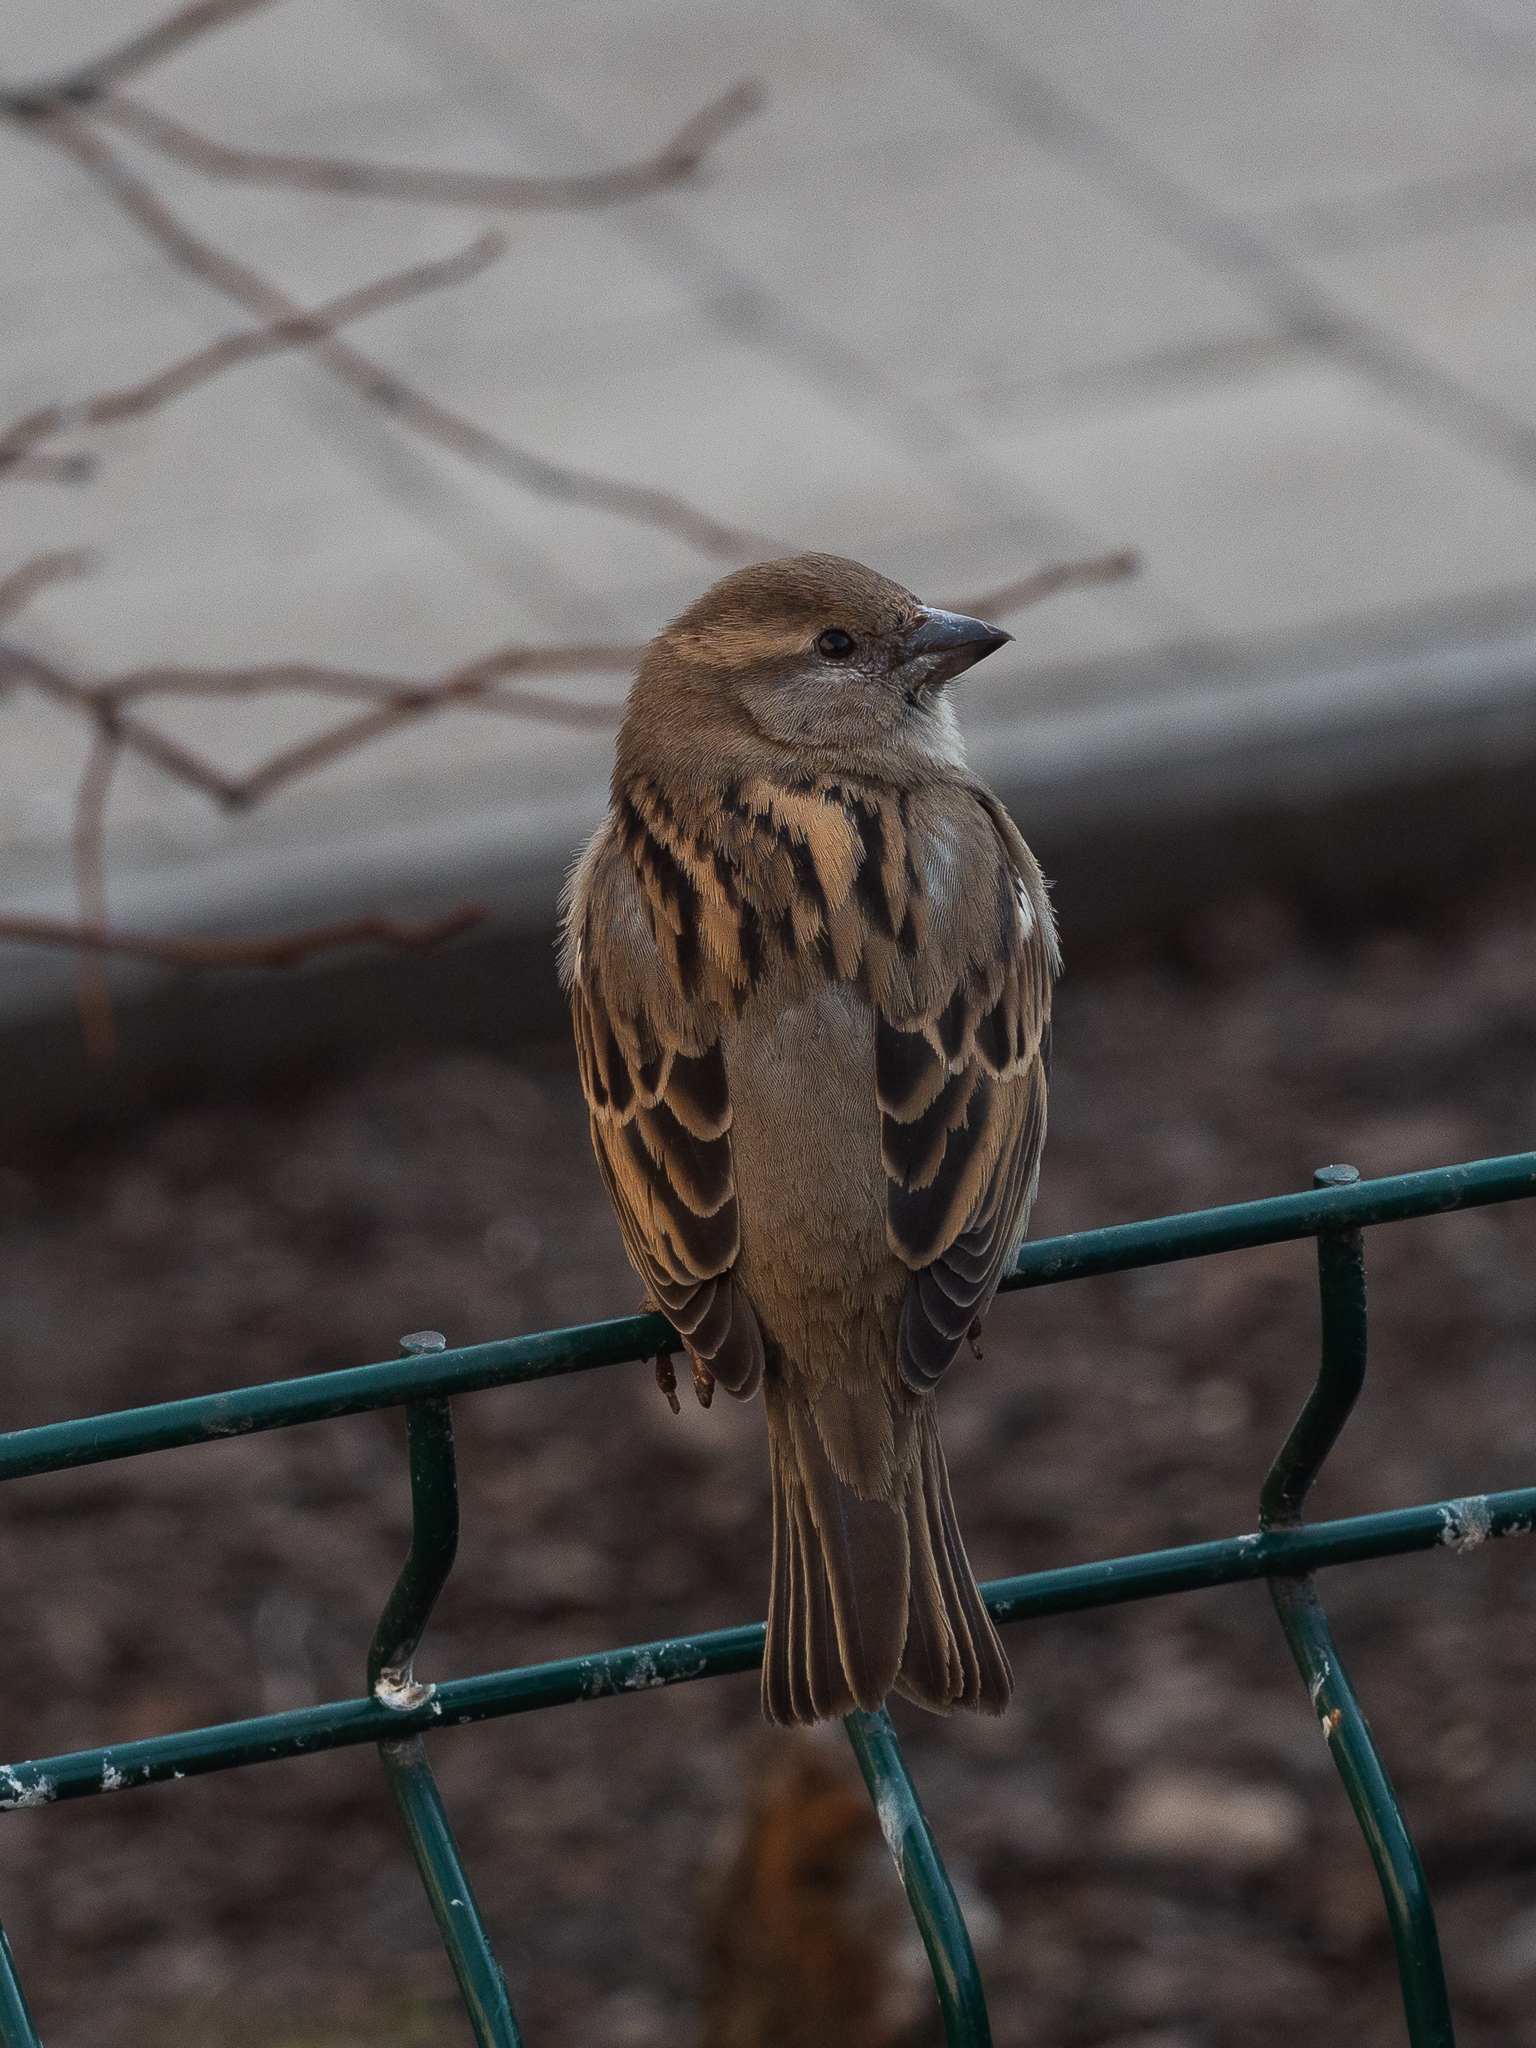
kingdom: Animalia
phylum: Chordata
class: Aves
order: Passeriformes
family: Passeridae
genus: Passer
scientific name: Passer domesticus
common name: House sparrow
